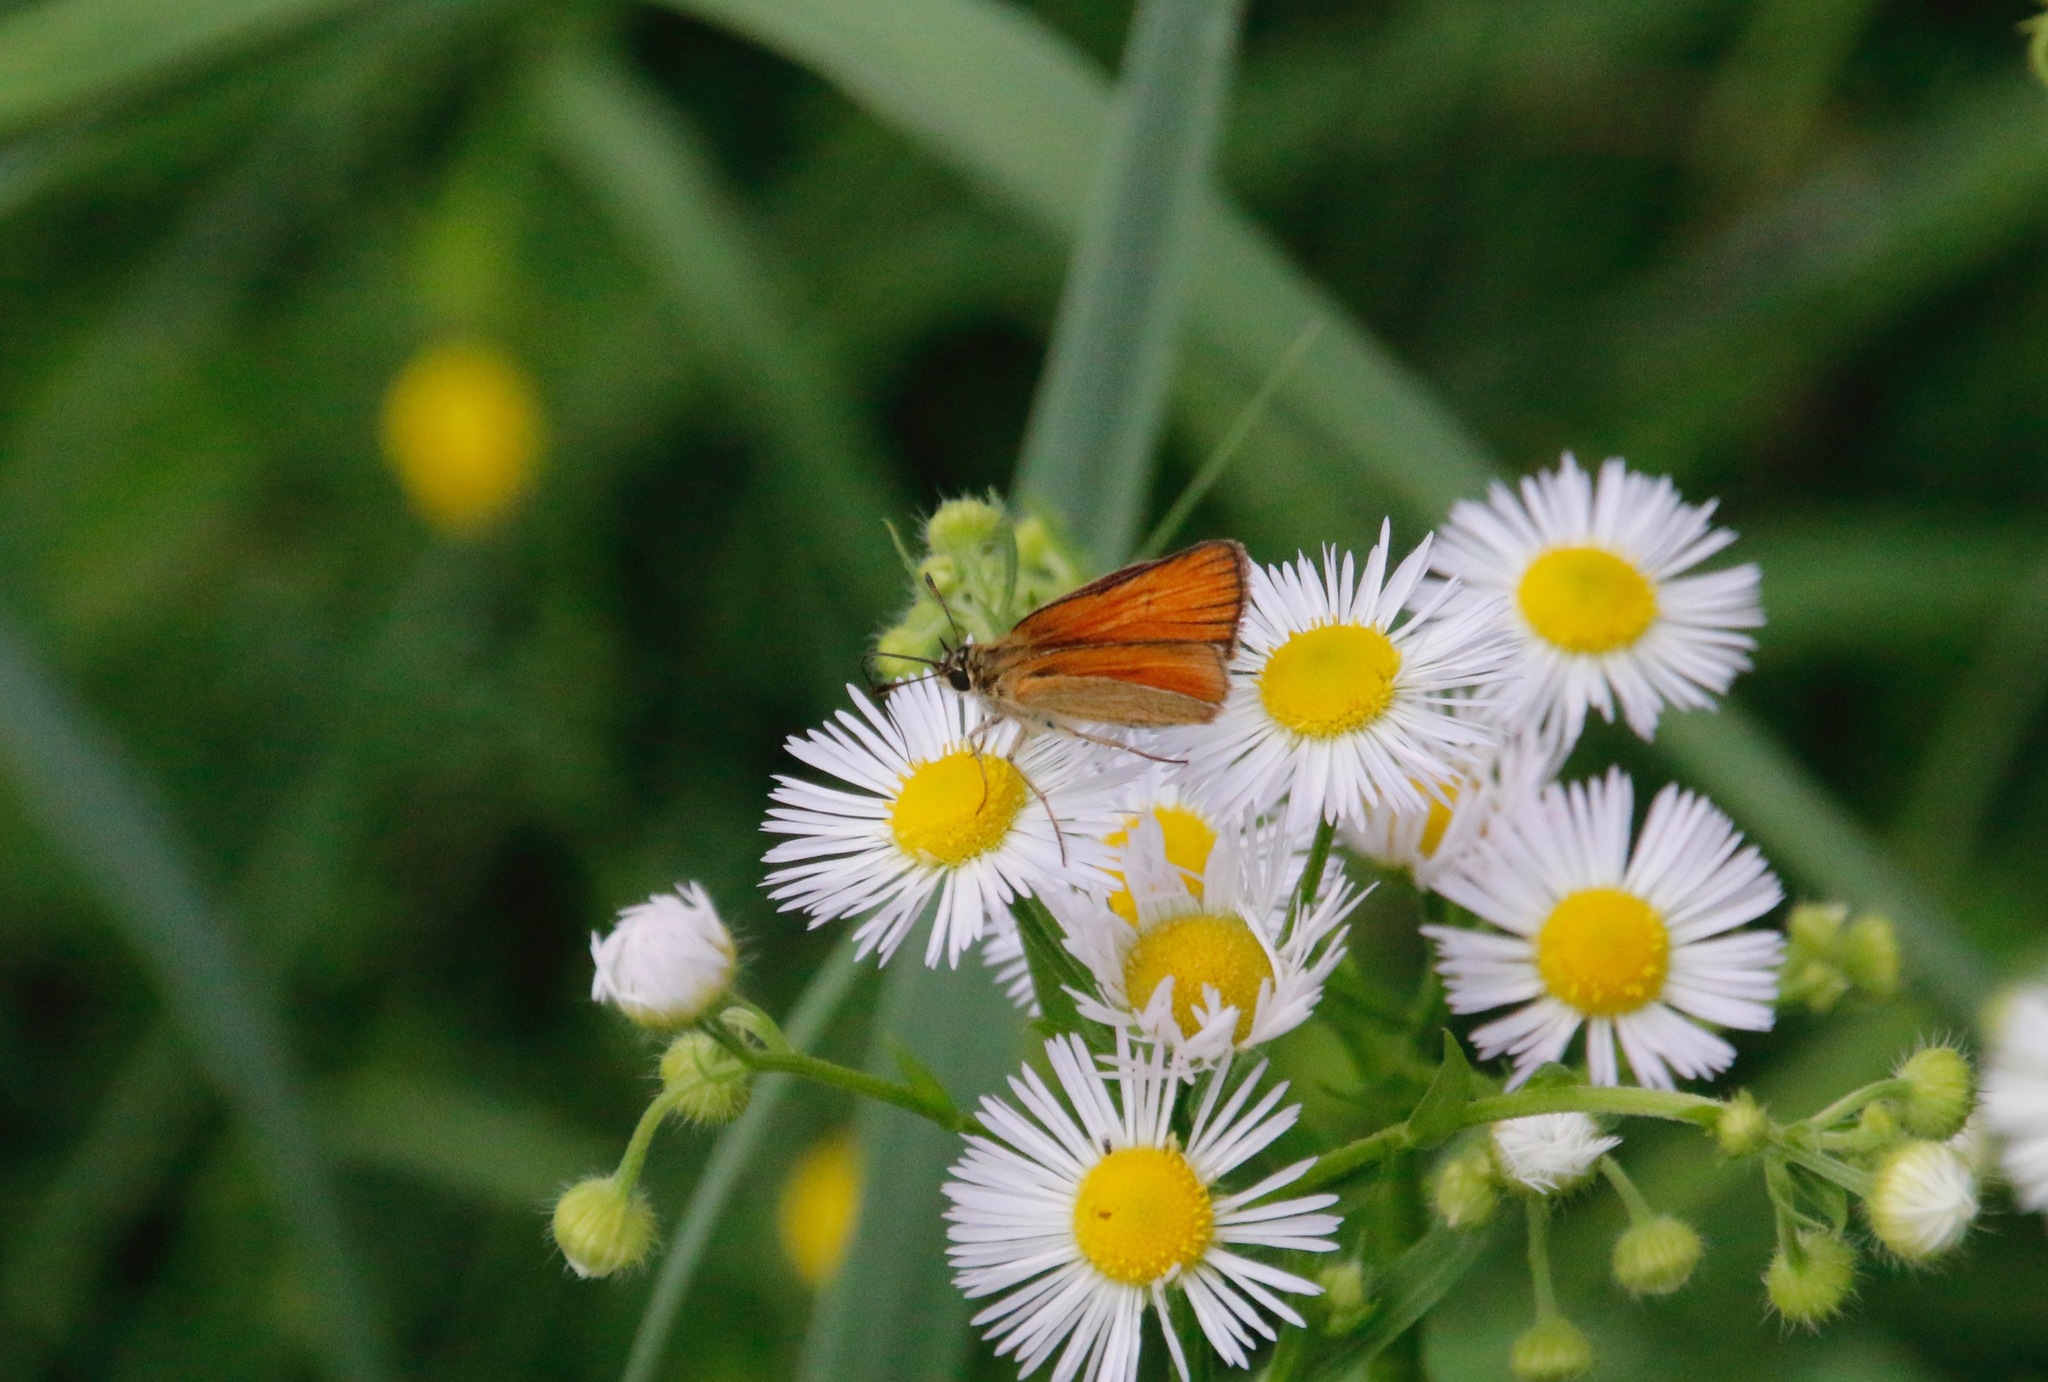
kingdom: Animalia
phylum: Arthropoda
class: Insecta
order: Lepidoptera
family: Hesperiidae
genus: Thymelicus
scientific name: Thymelicus lineola
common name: Essex skipper
